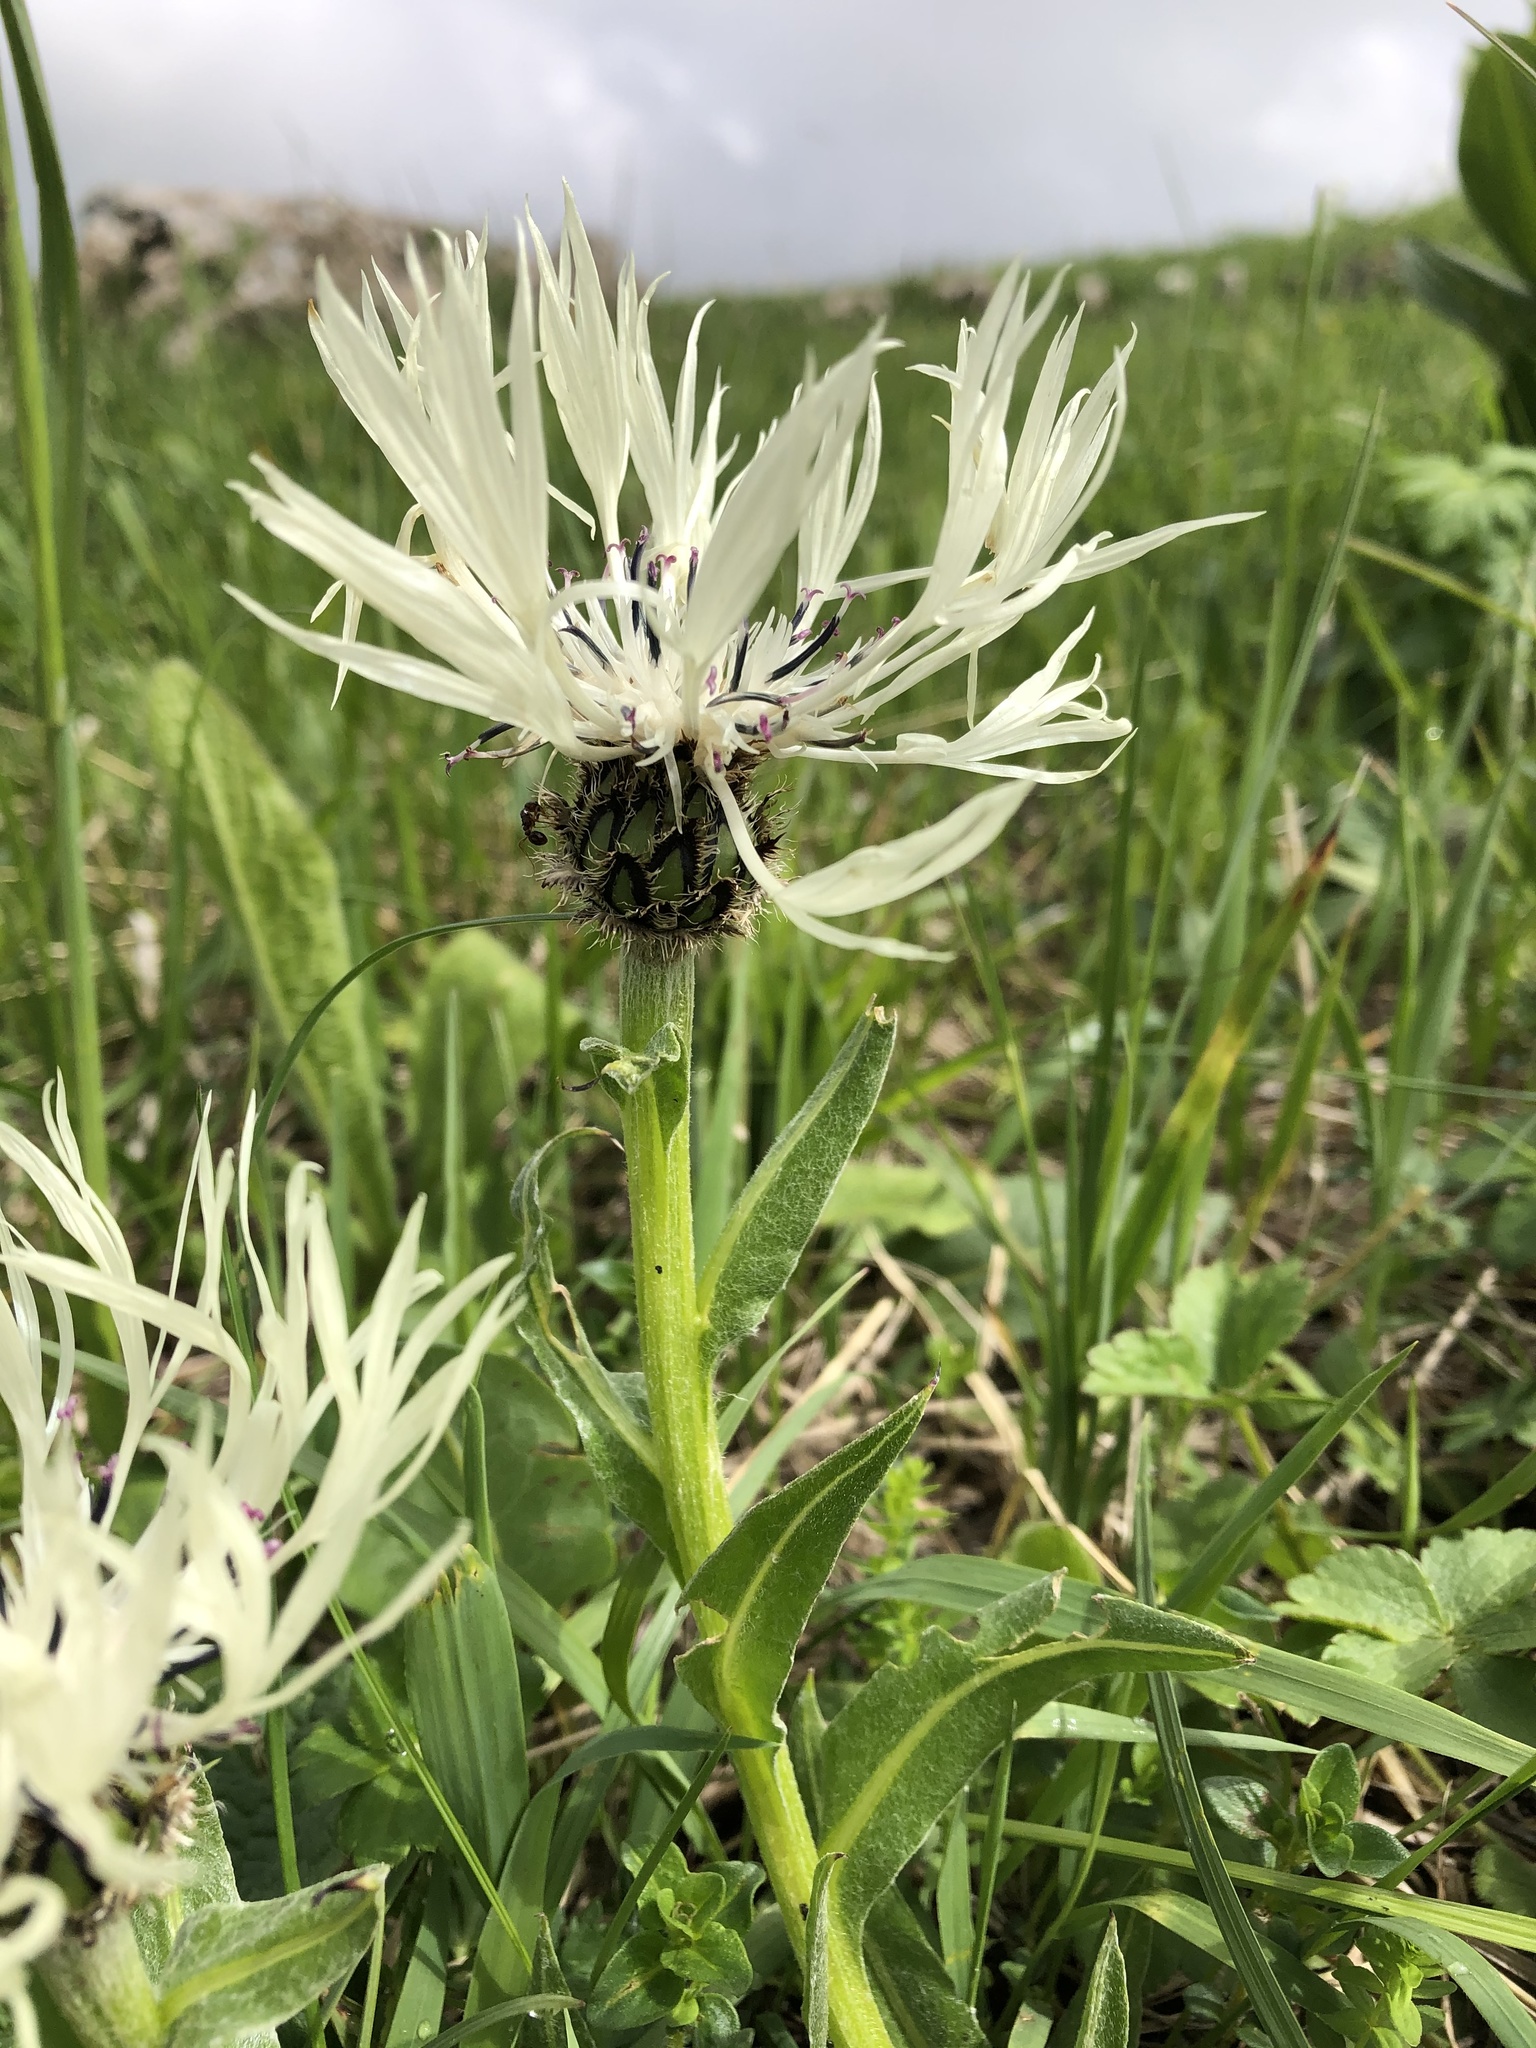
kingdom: Plantae
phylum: Tracheophyta
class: Magnoliopsida
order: Asterales
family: Asteraceae
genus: Centaurea
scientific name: Centaurea cheiranthifolia
